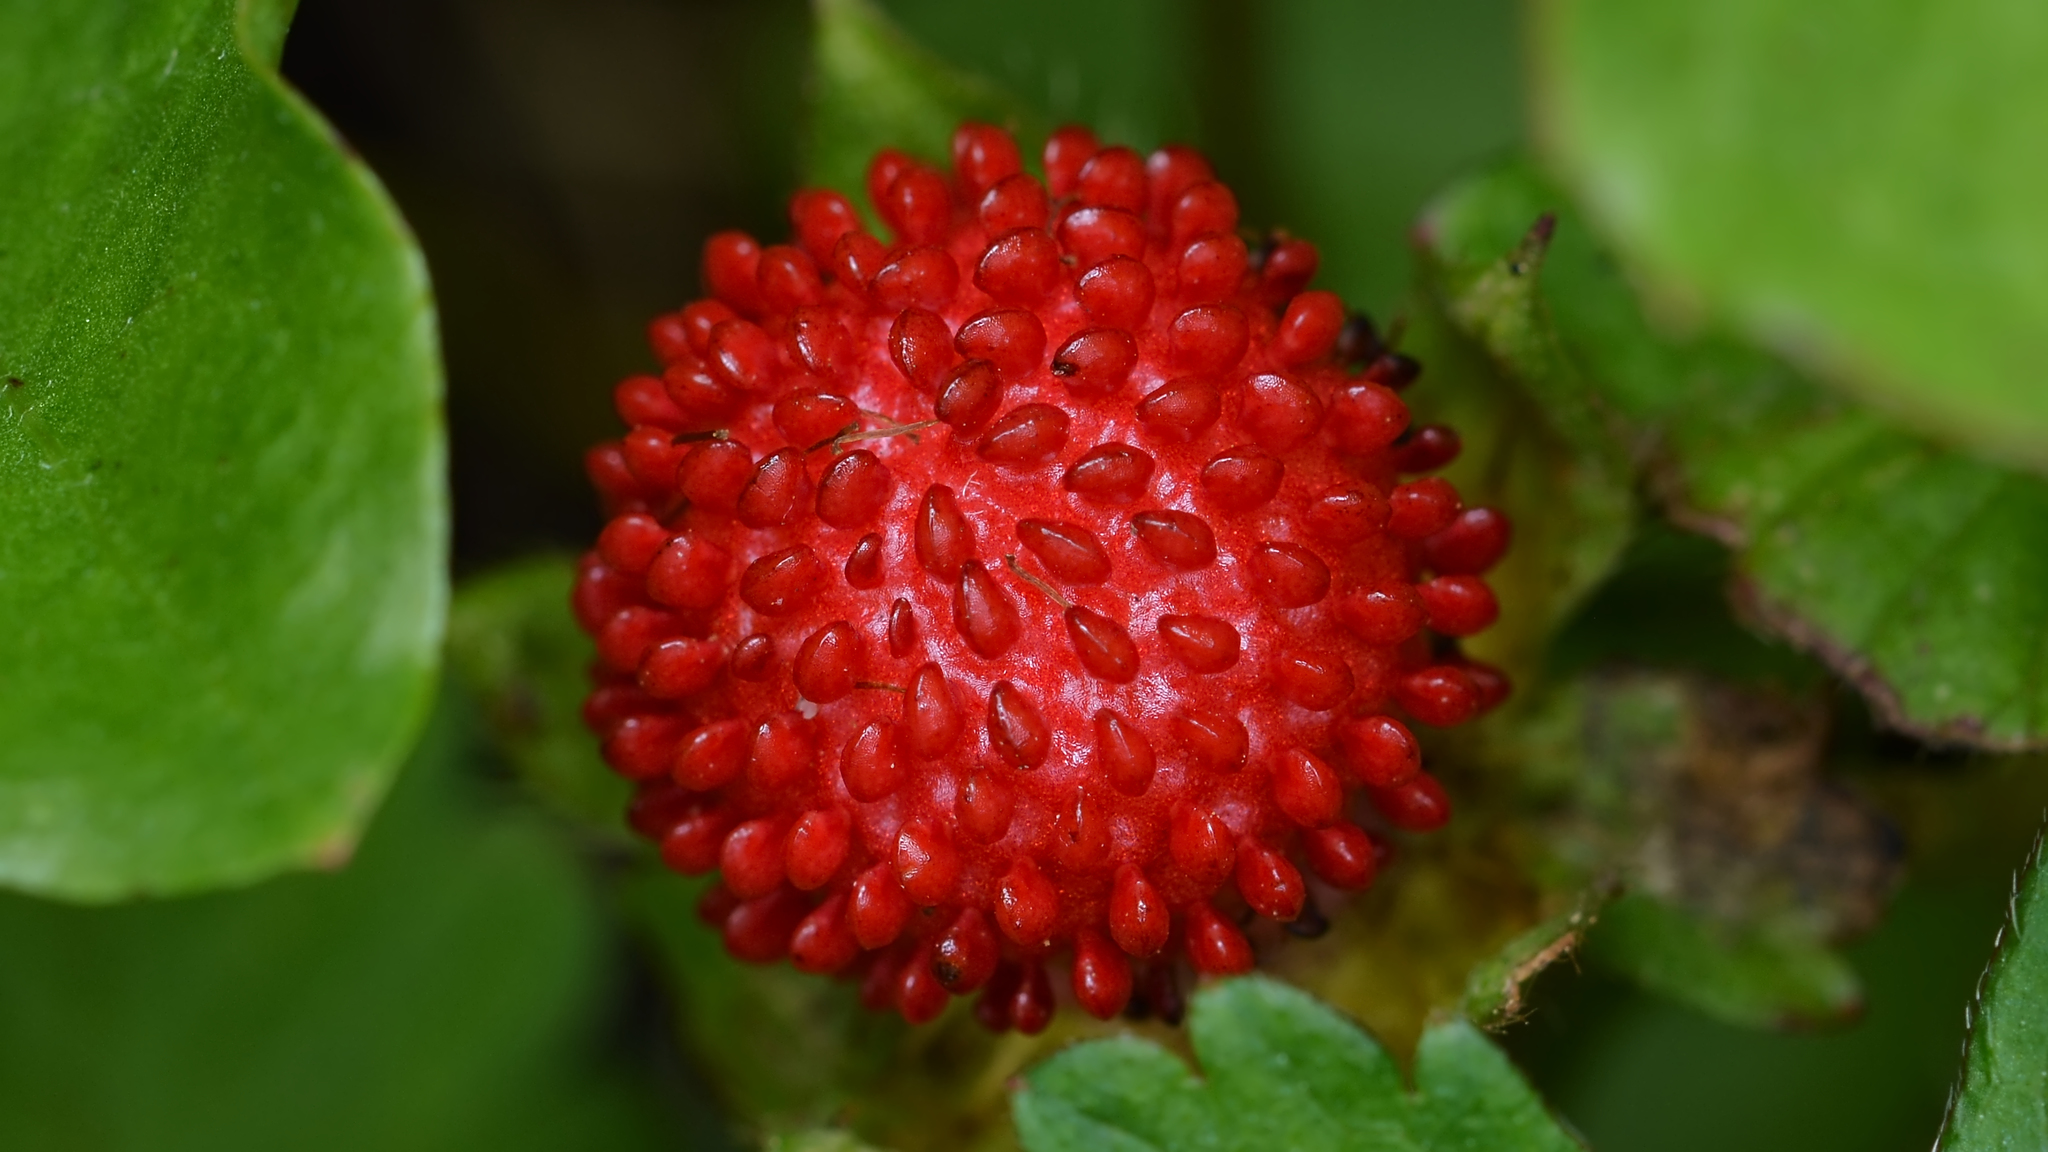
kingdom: Plantae
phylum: Tracheophyta
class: Magnoliopsida
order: Rosales
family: Rosaceae
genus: Potentilla
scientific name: Potentilla indica
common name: Yellow-flowered strawberry
